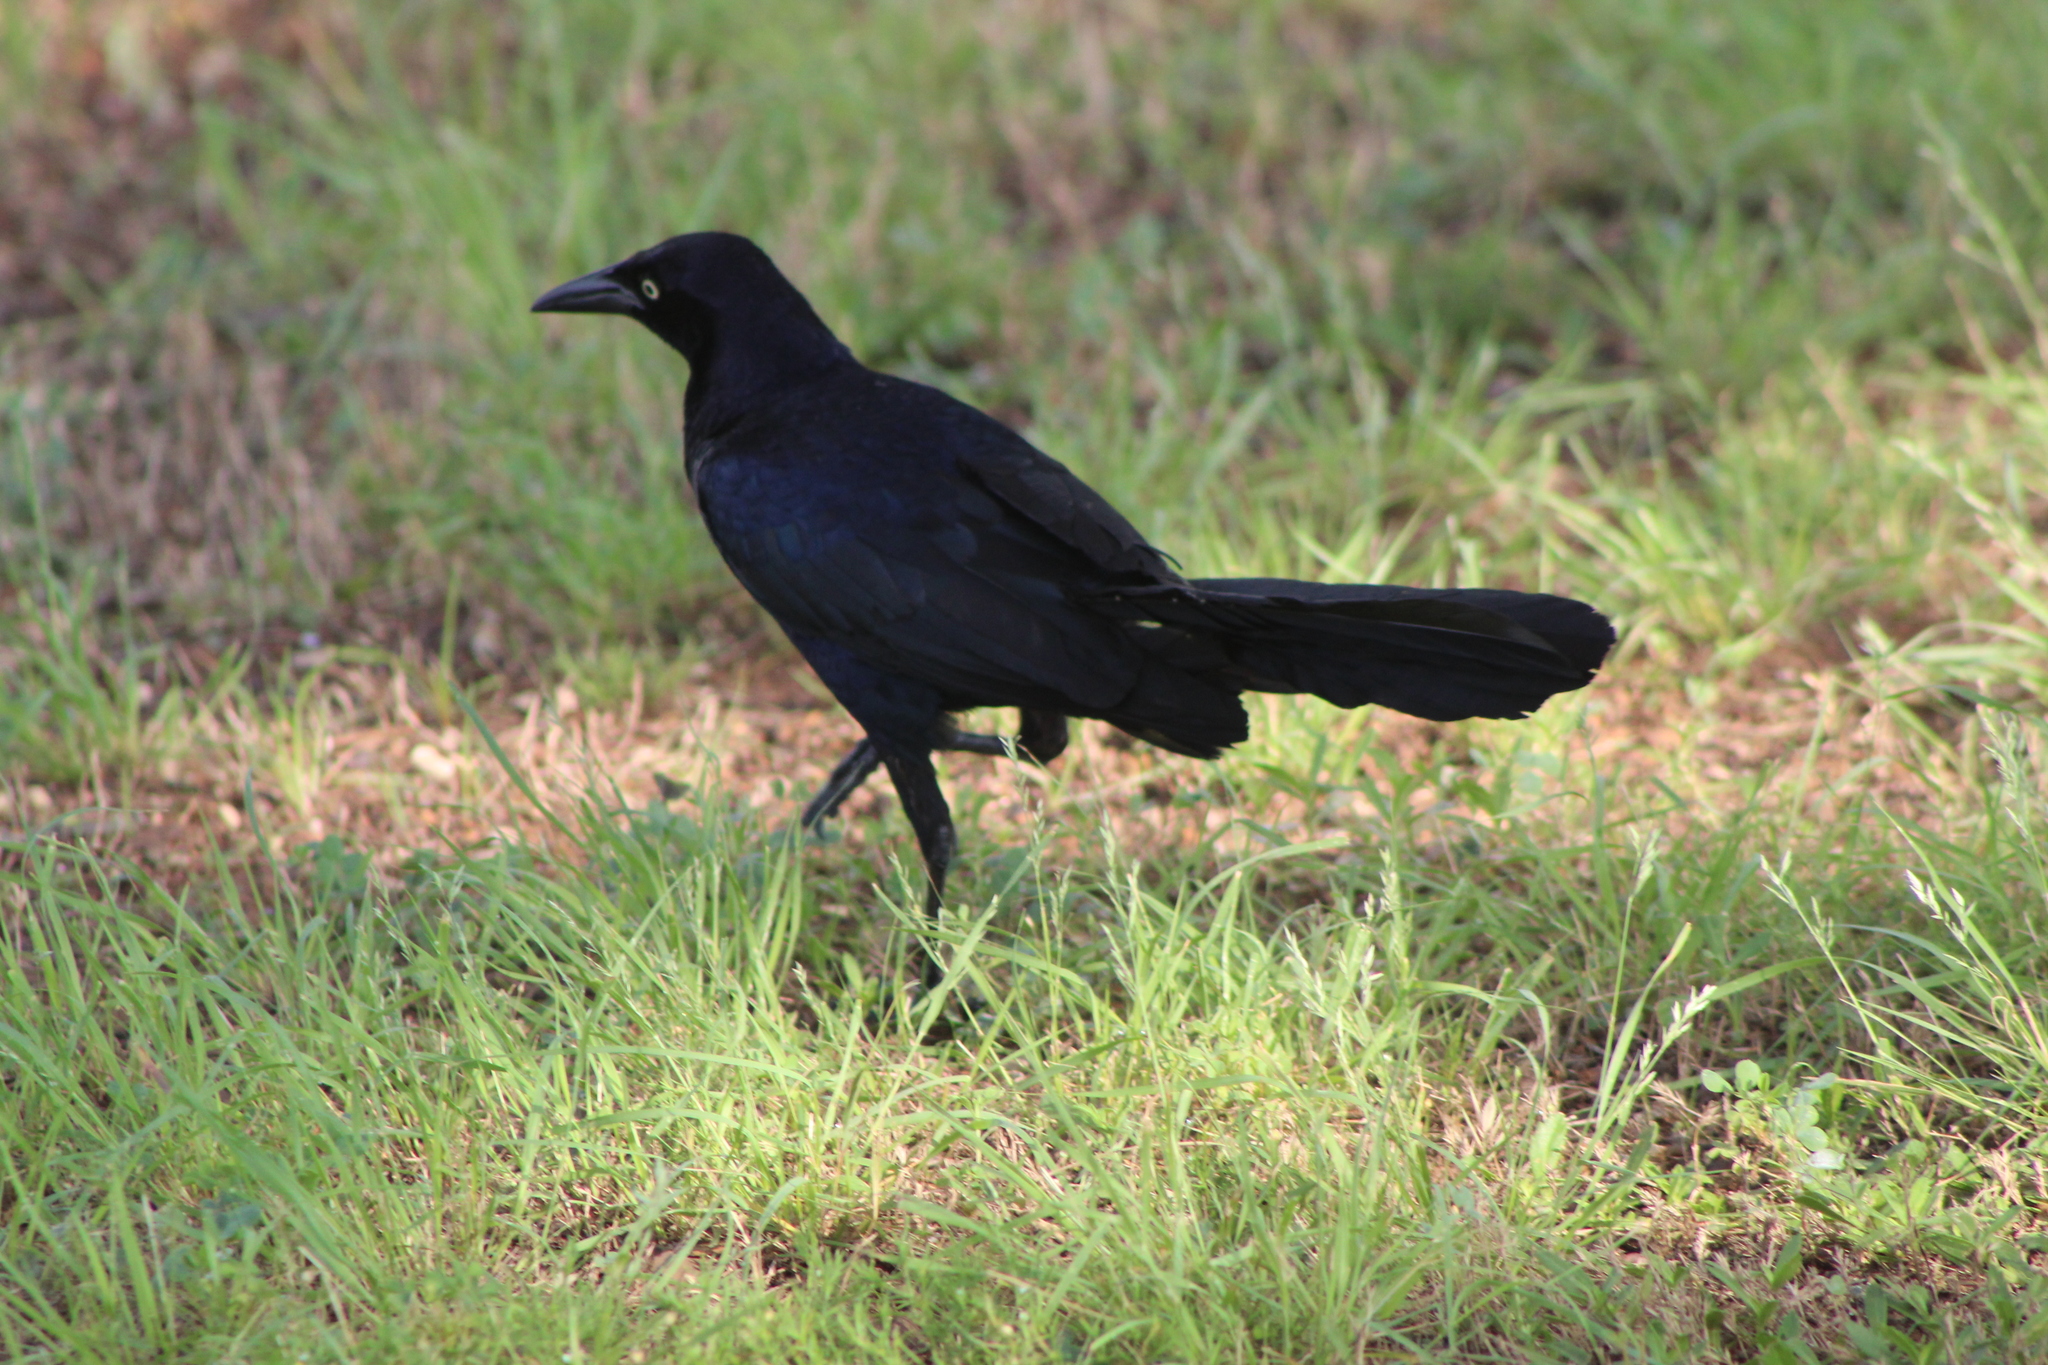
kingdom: Animalia
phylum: Chordata
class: Aves
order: Passeriformes
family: Icteridae
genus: Quiscalus
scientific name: Quiscalus mexicanus
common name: Great-tailed grackle
